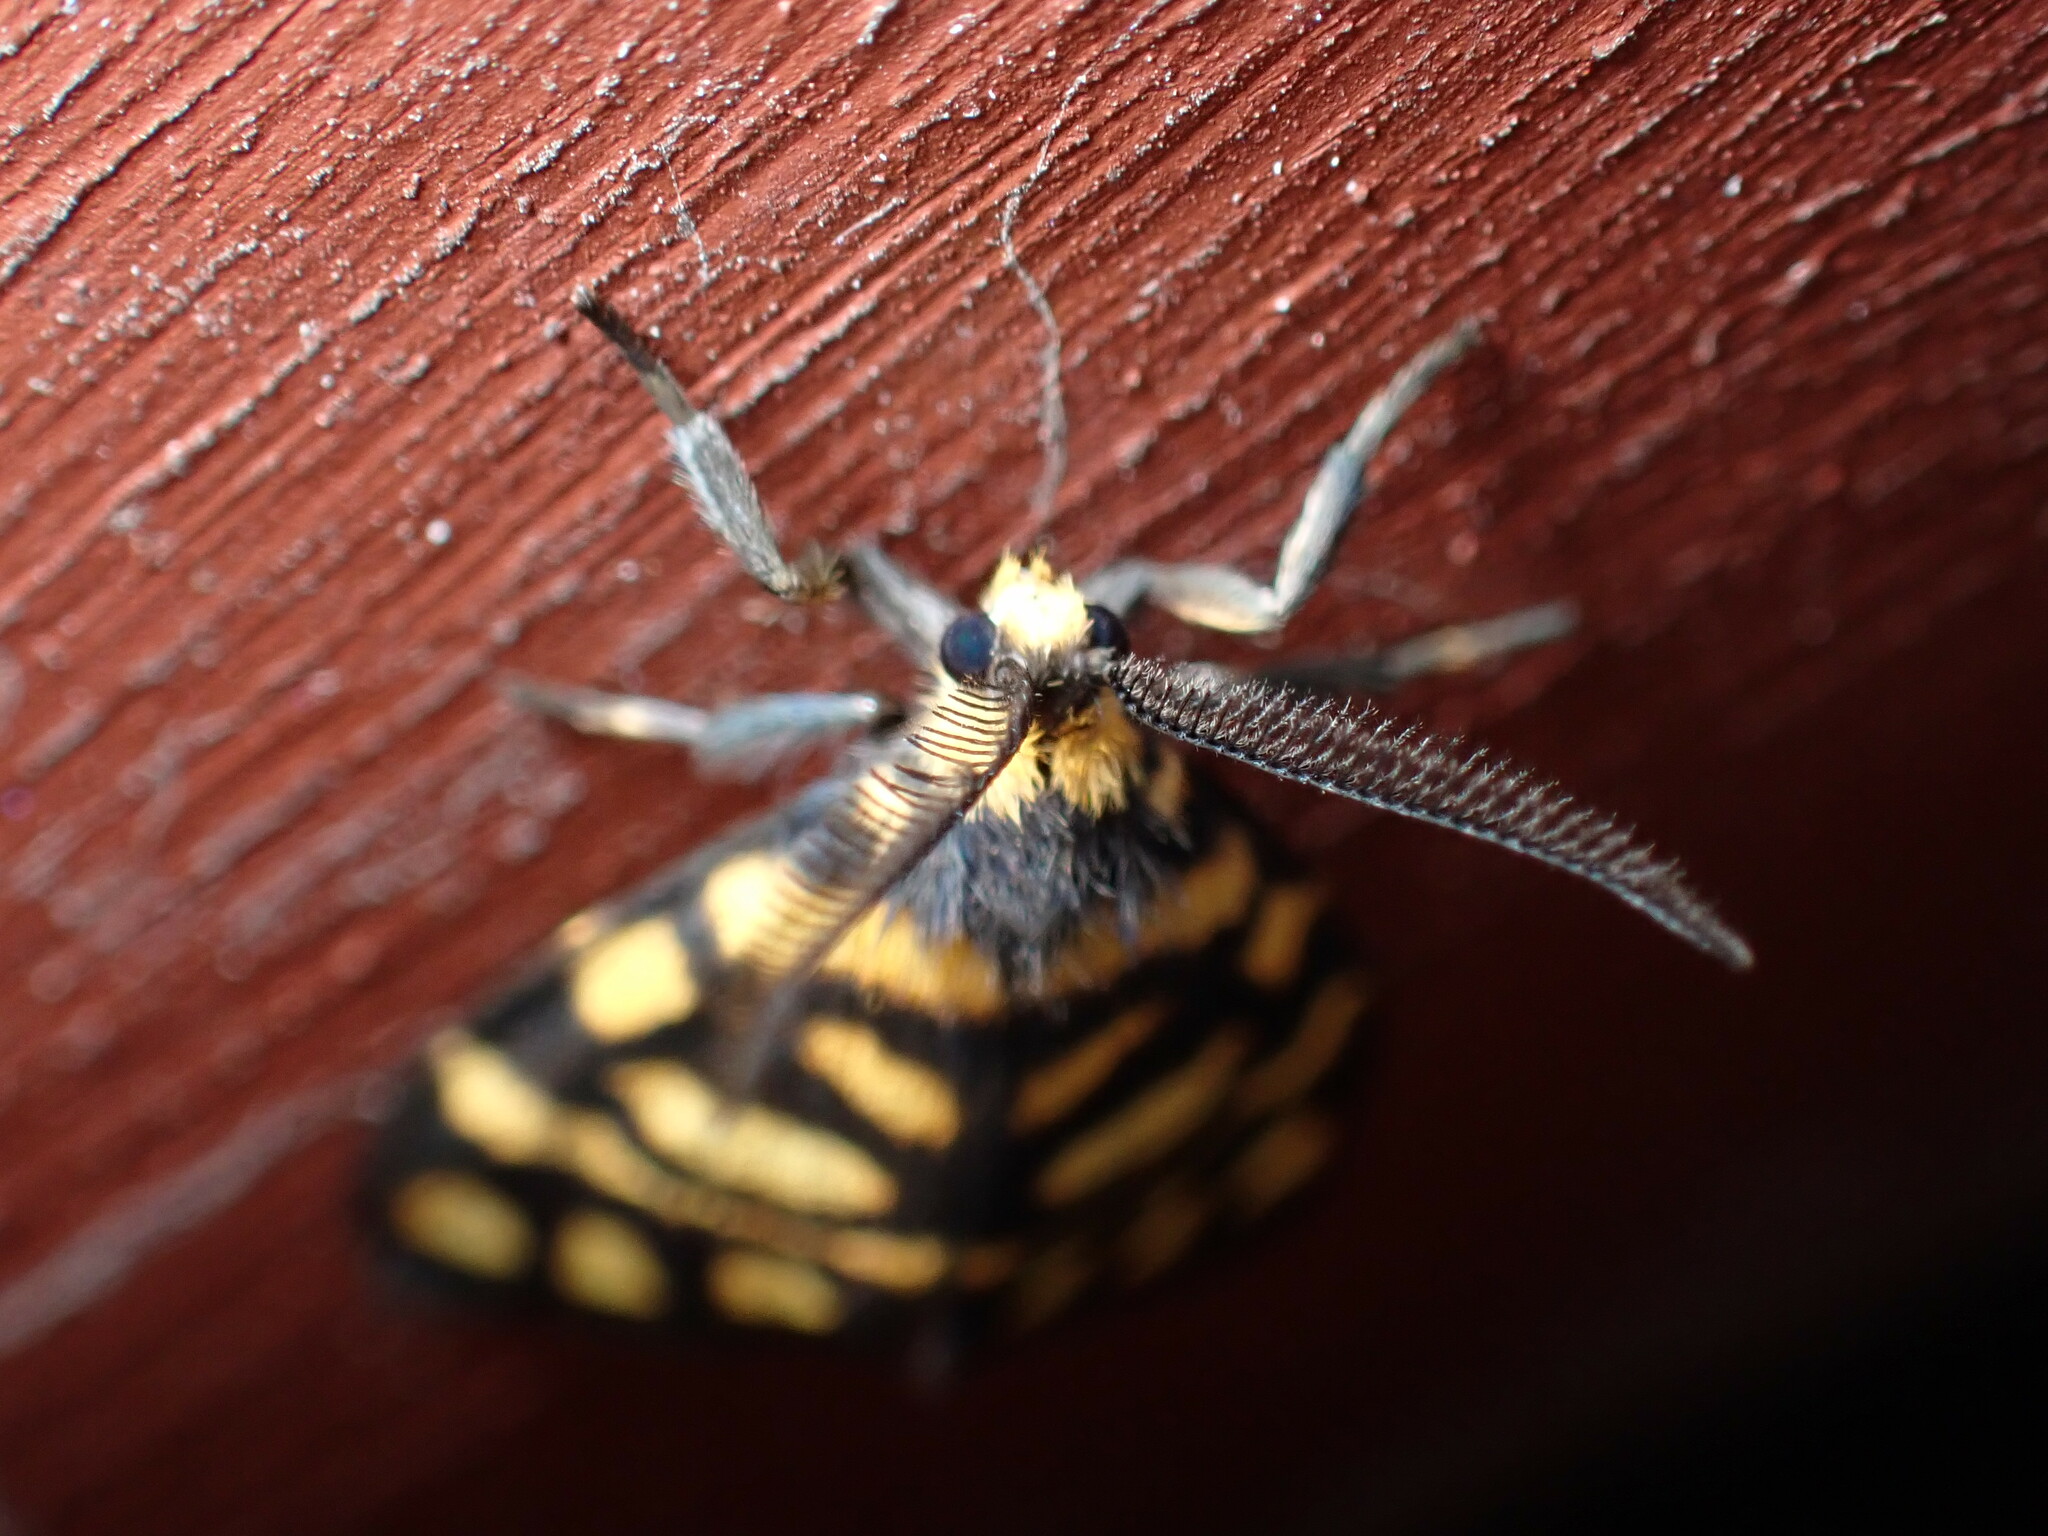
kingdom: Animalia
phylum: Arthropoda
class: Insecta
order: Lepidoptera
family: Erebidae
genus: Asura
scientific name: Asura lydia
